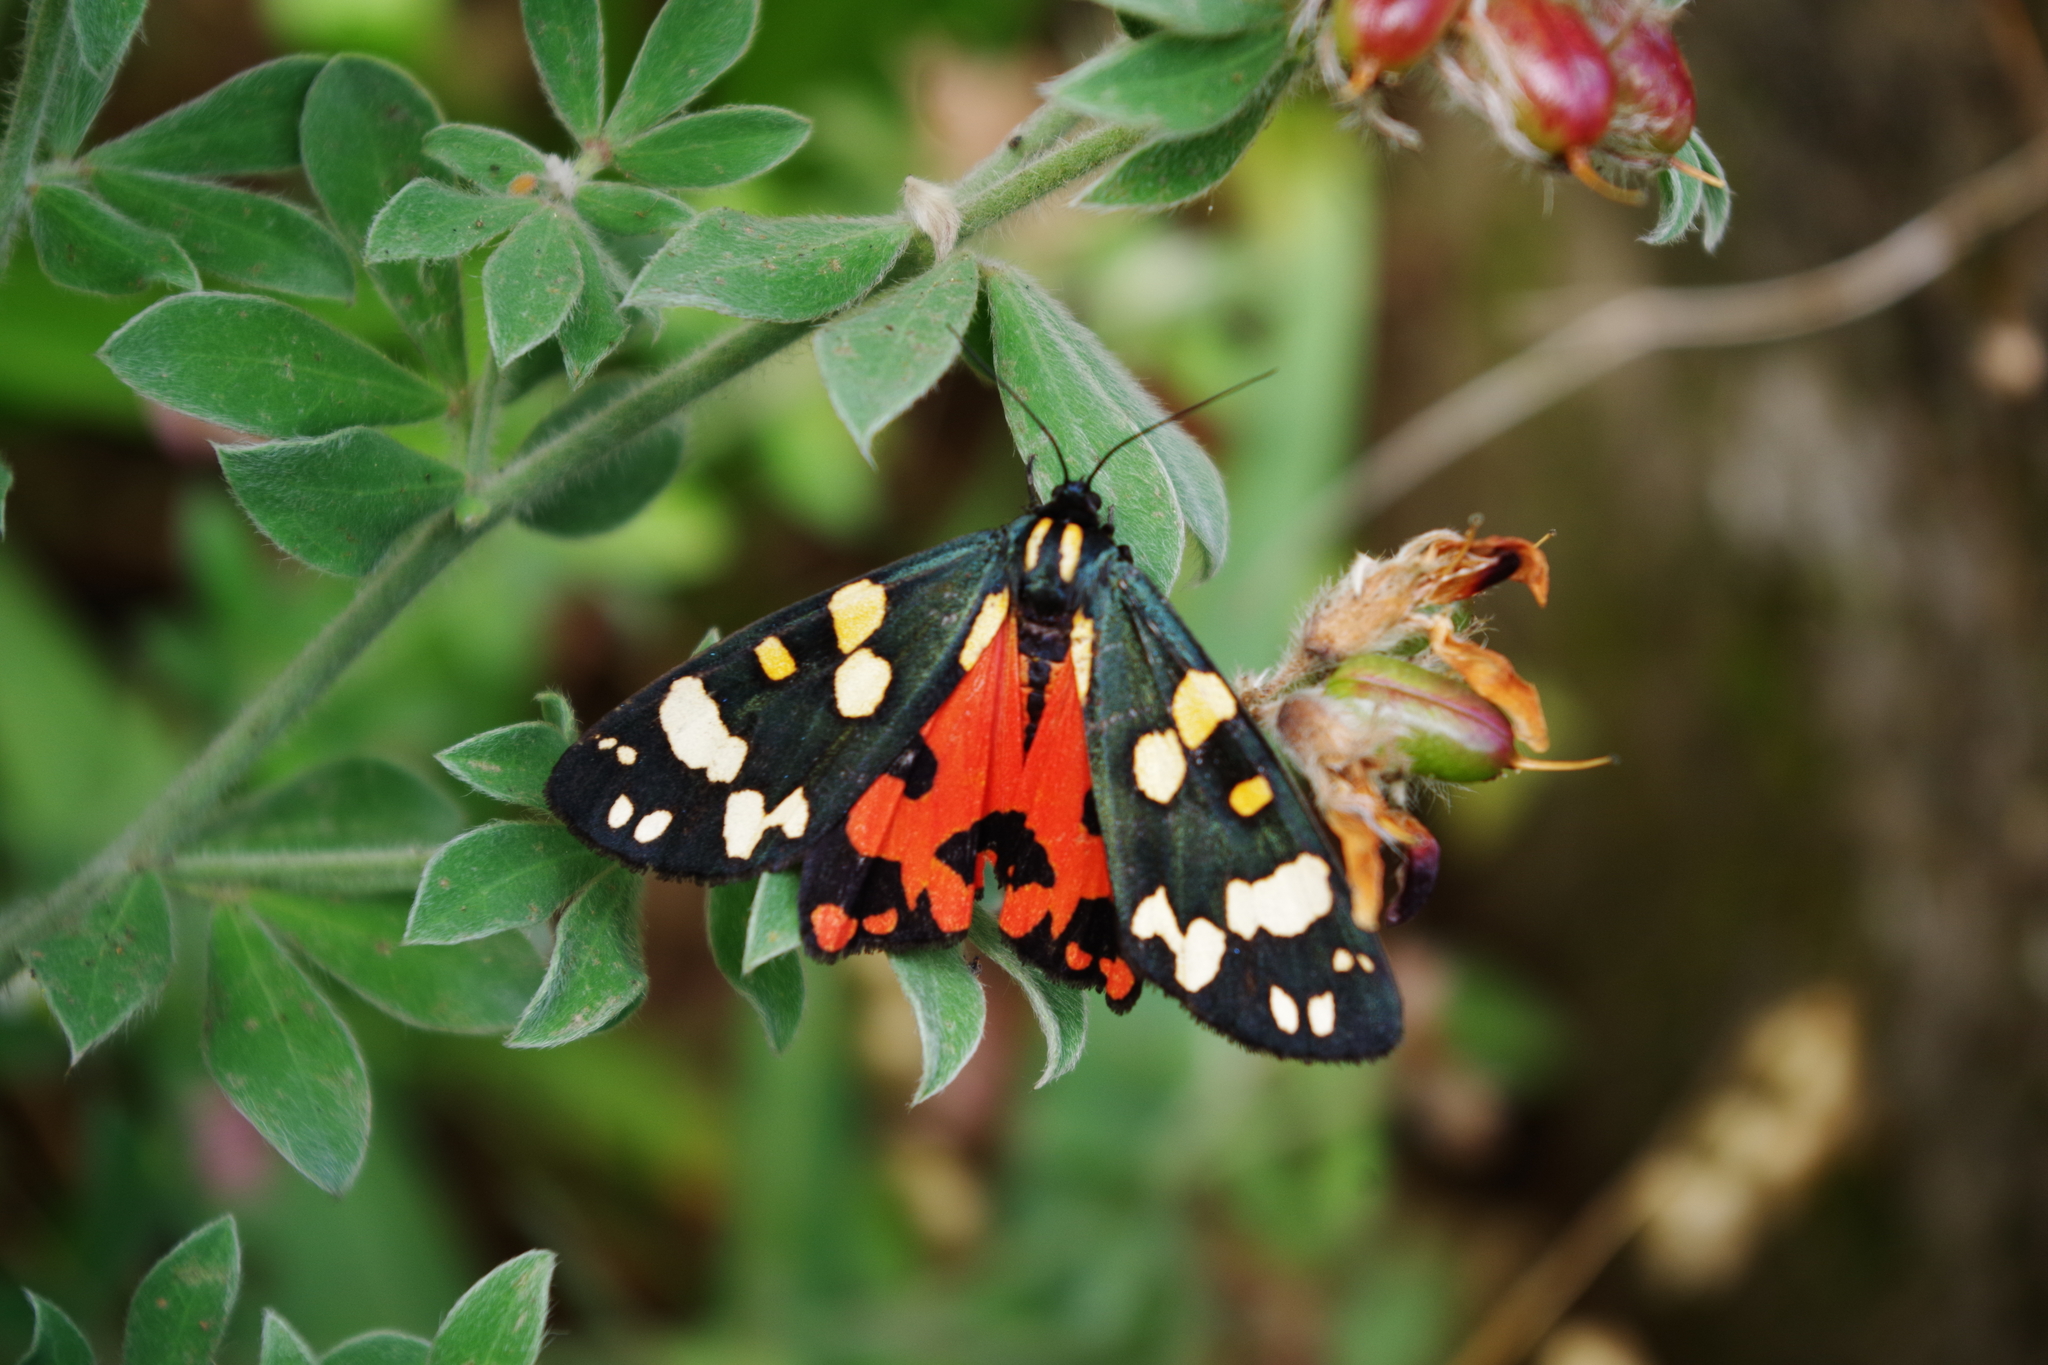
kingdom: Animalia
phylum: Arthropoda
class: Insecta
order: Lepidoptera
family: Erebidae
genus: Callimorpha
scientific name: Callimorpha dominula
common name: Scarlet tiger
